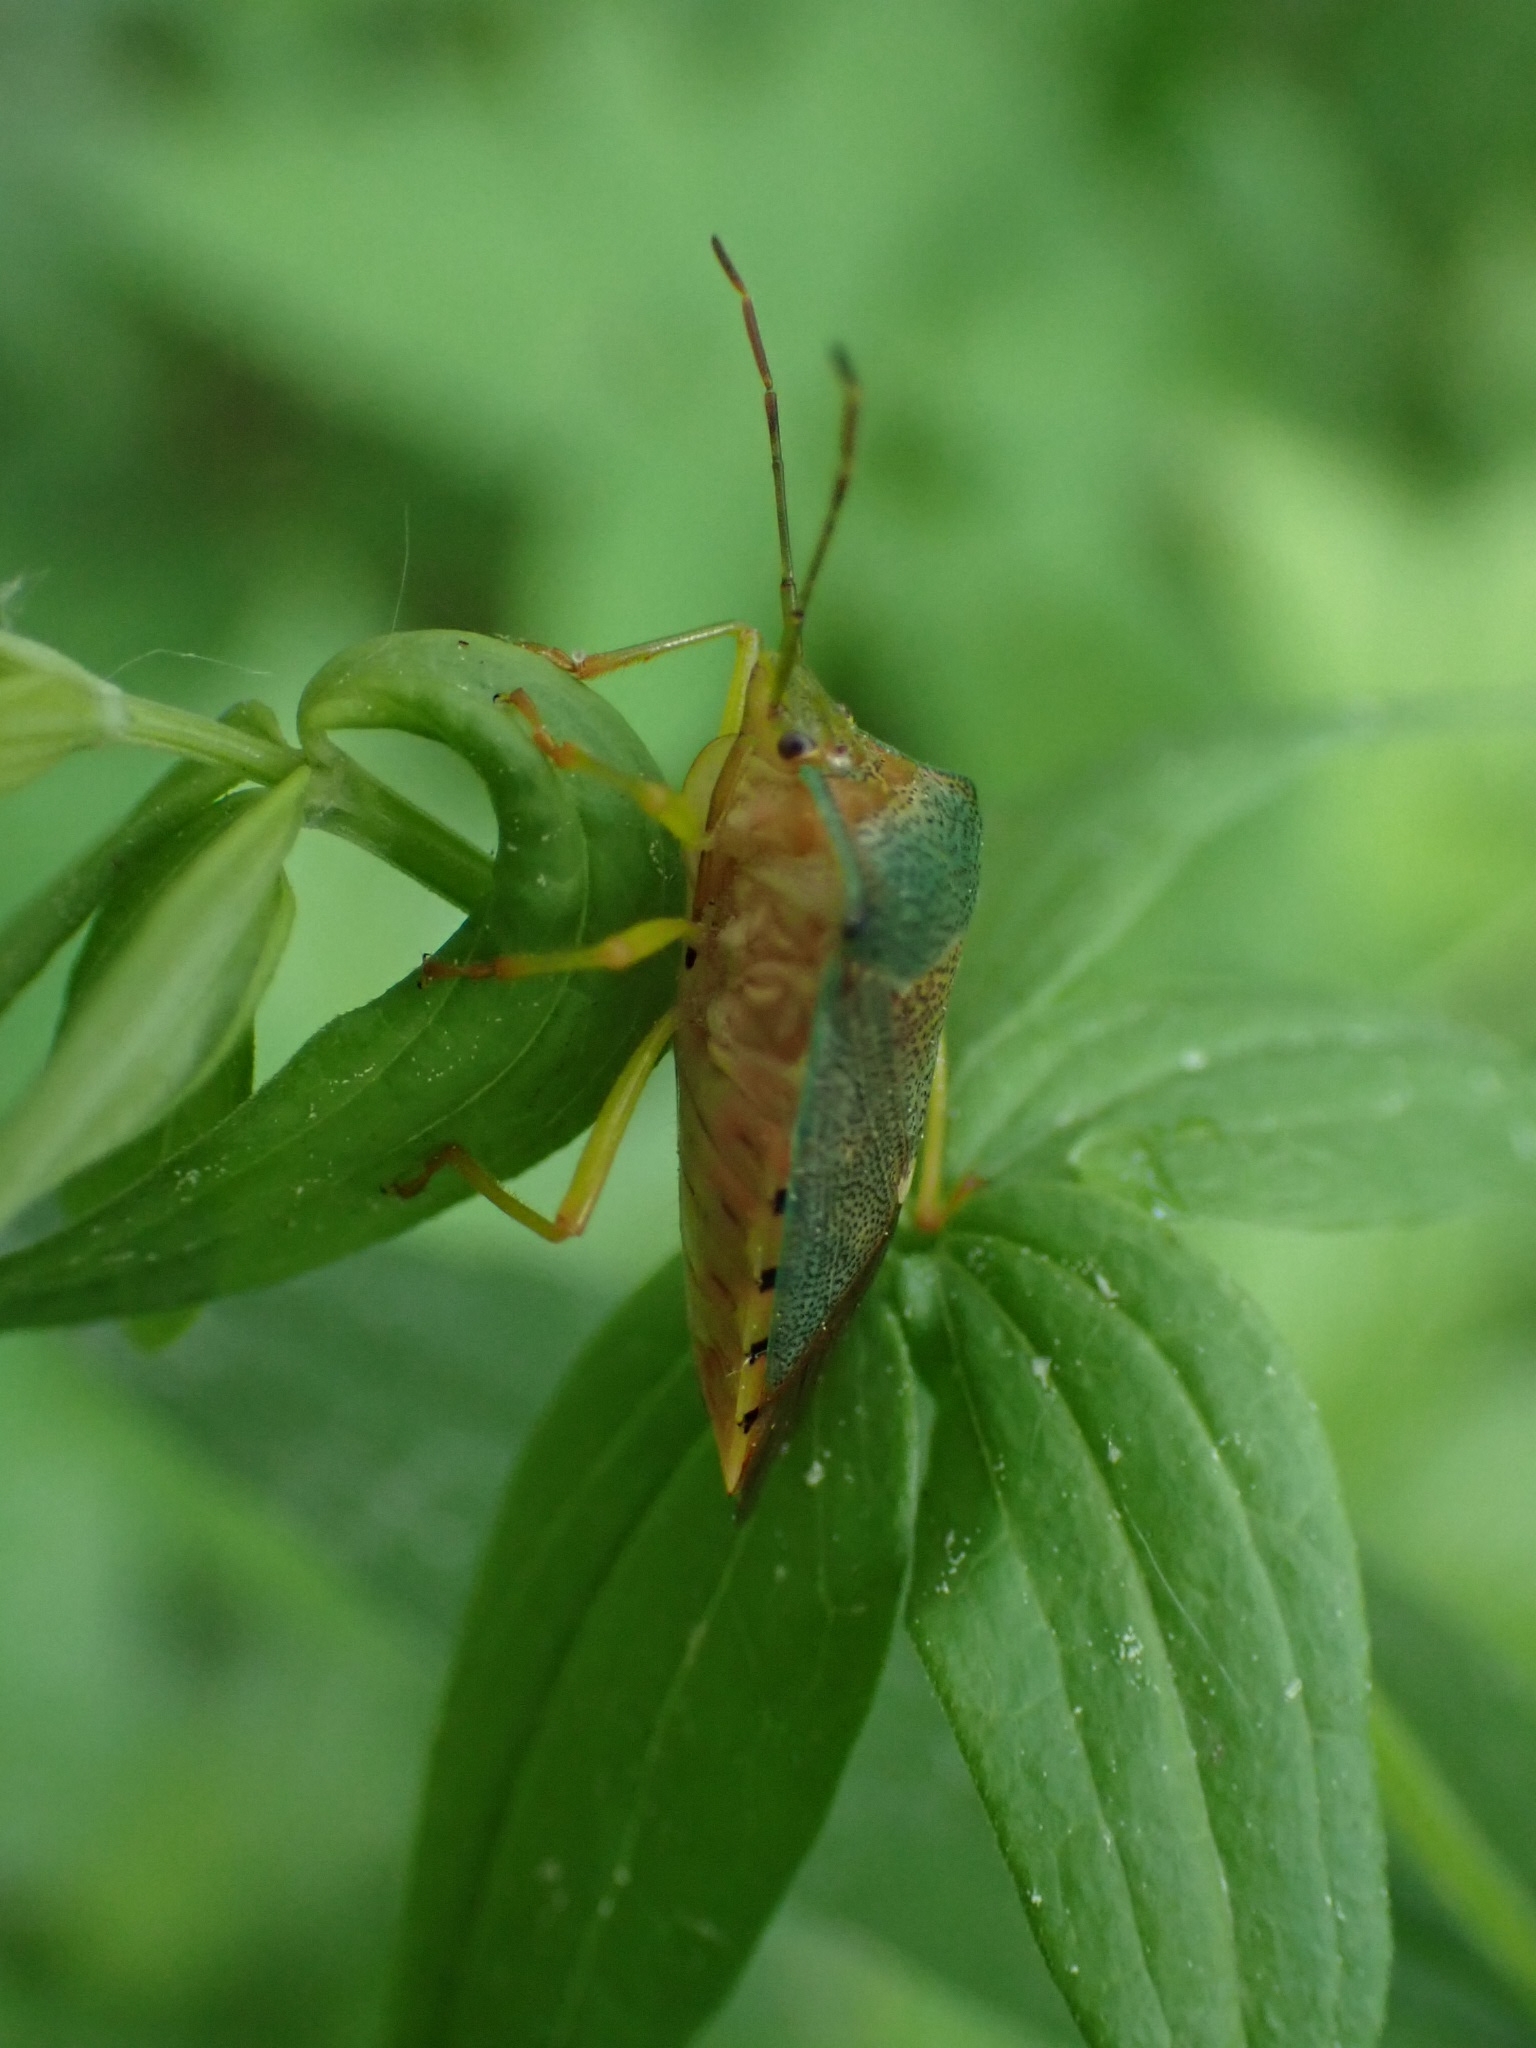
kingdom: Animalia
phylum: Arthropoda
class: Insecta
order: Hemiptera
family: Acanthosomatidae
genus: Acanthosoma
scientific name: Acanthosoma denticaudum
